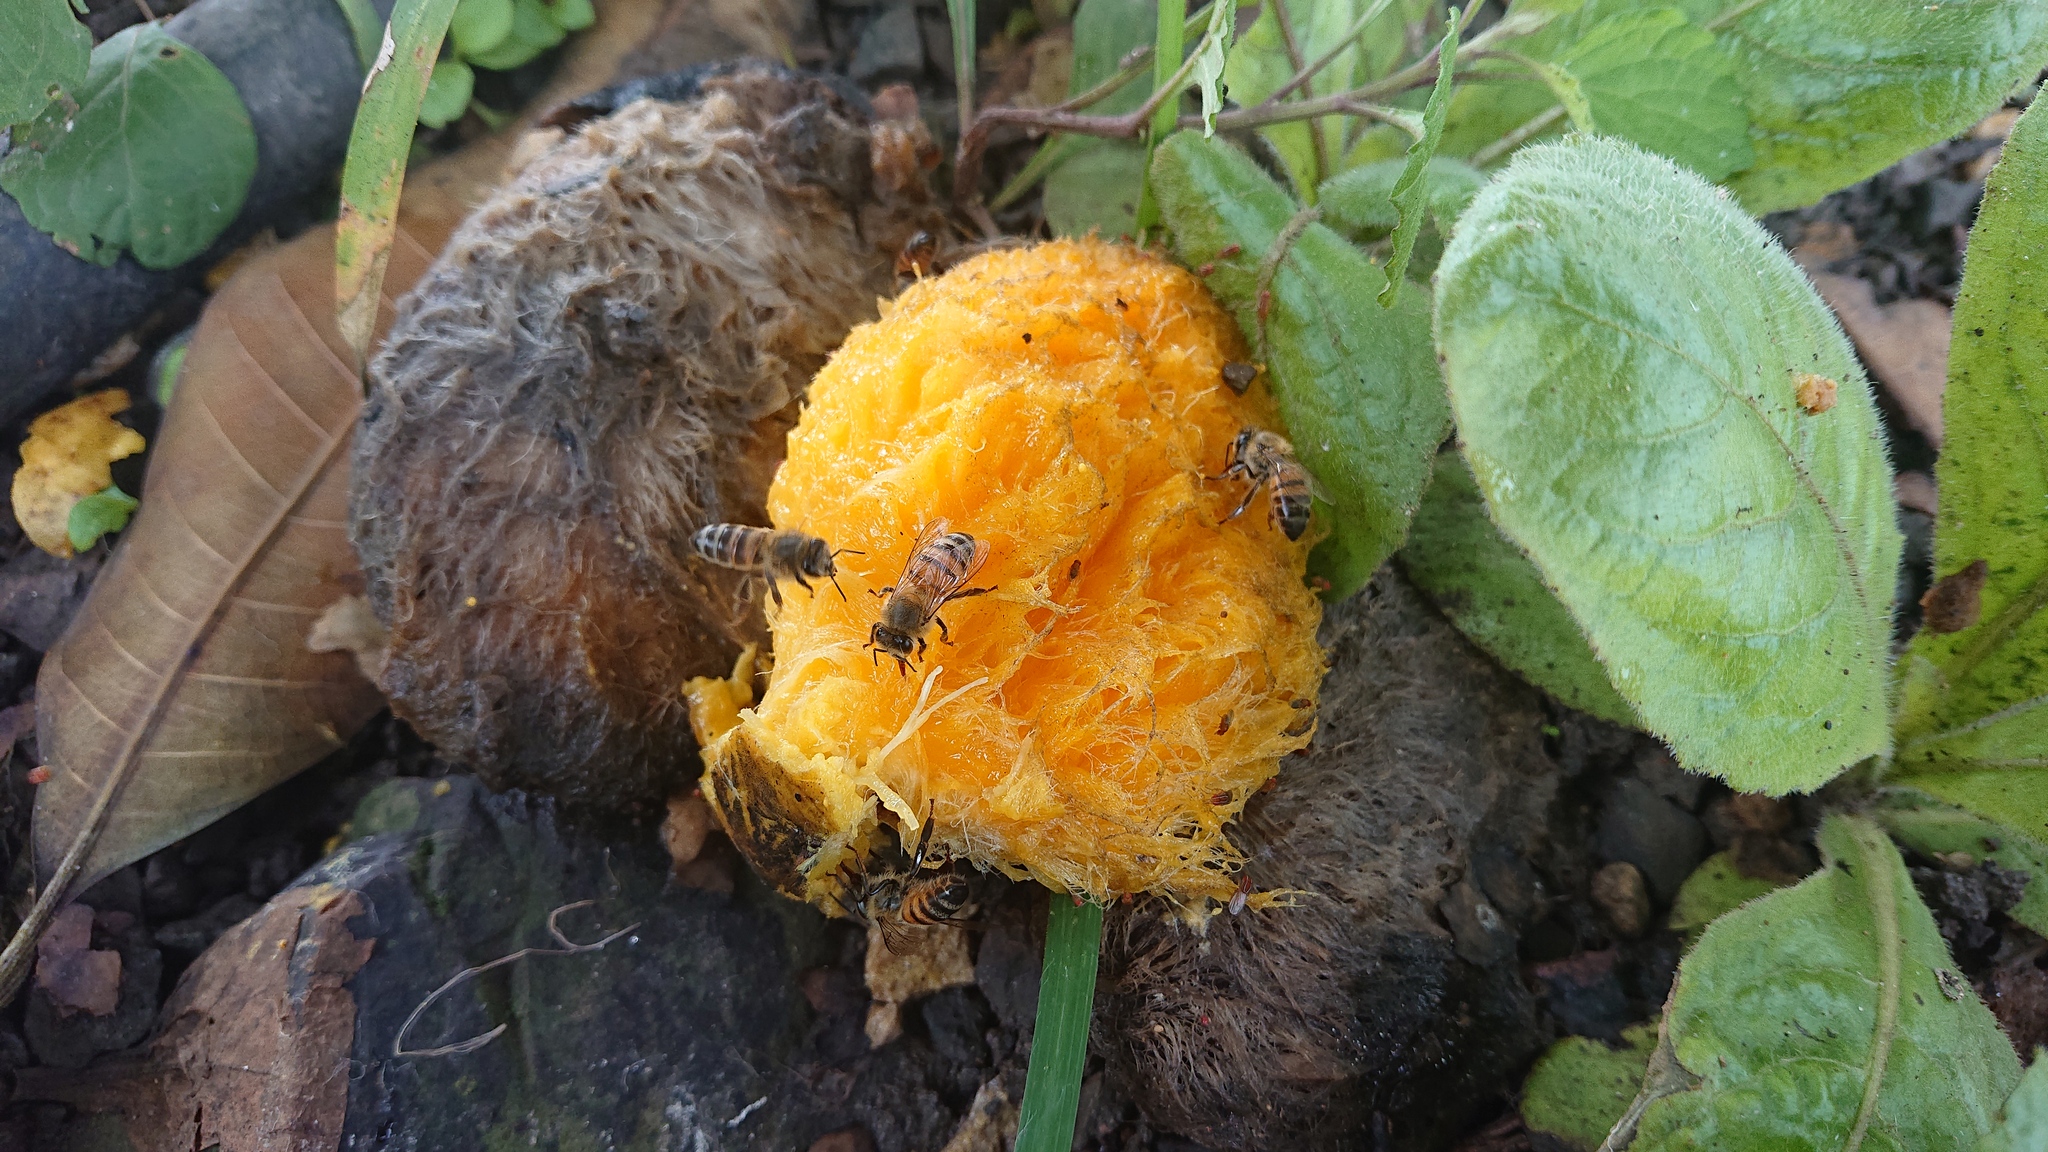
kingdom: Animalia
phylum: Arthropoda
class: Insecta
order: Hymenoptera
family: Apidae
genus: Apis
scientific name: Apis mellifera
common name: Honey bee
